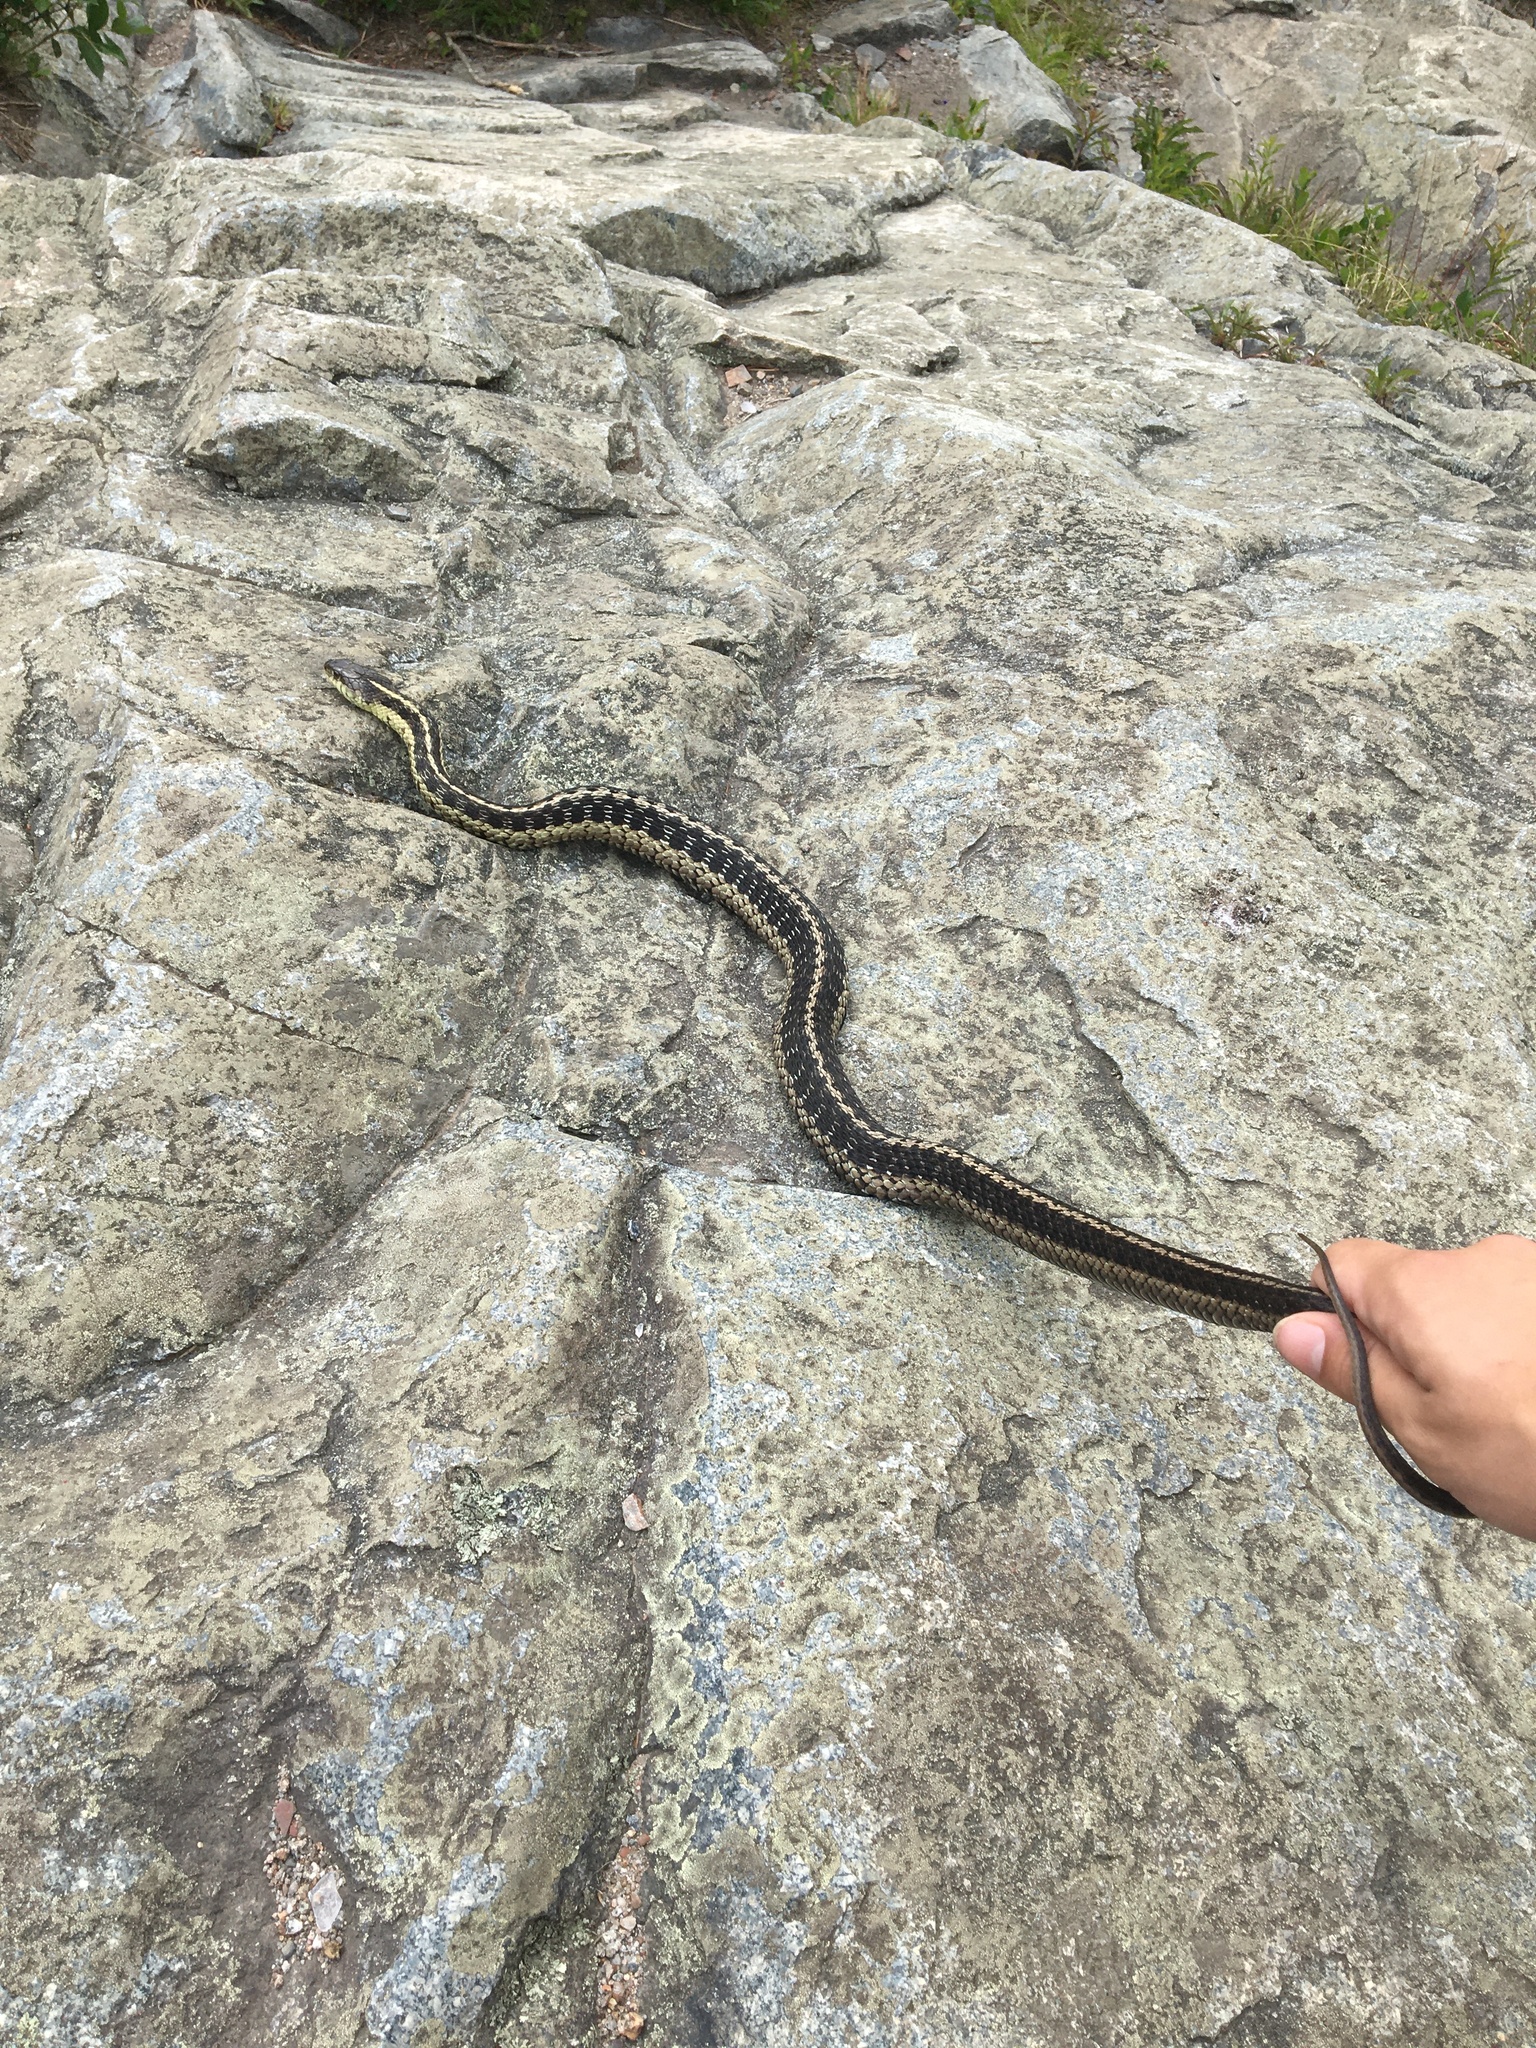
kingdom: Animalia
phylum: Chordata
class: Squamata
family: Colubridae
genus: Thamnophis
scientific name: Thamnophis sirtalis
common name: Common garter snake
